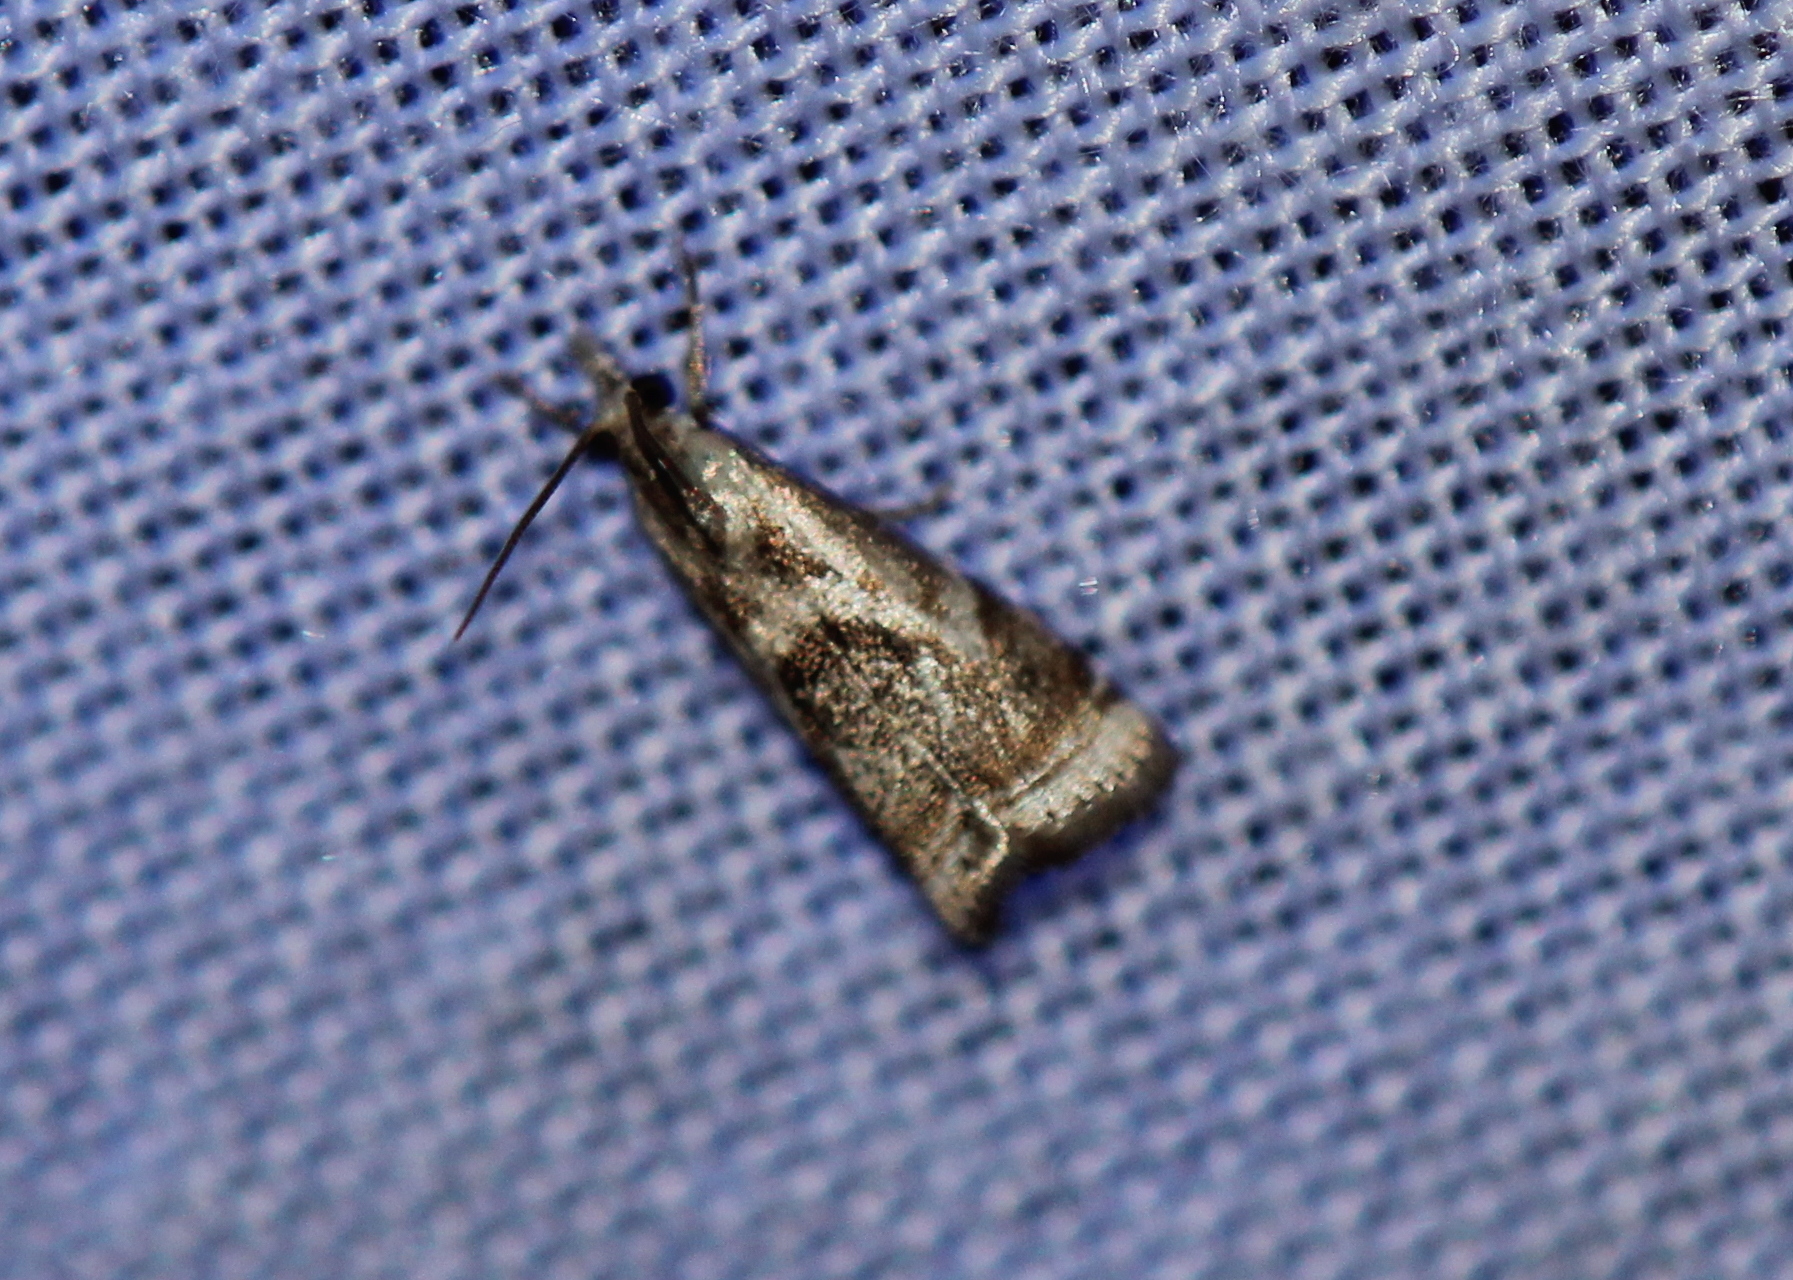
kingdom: Animalia
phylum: Arthropoda
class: Insecta
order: Lepidoptera
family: Crambidae
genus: Microcrambus
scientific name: Microcrambus elegans
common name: Elegant grass-veneer
